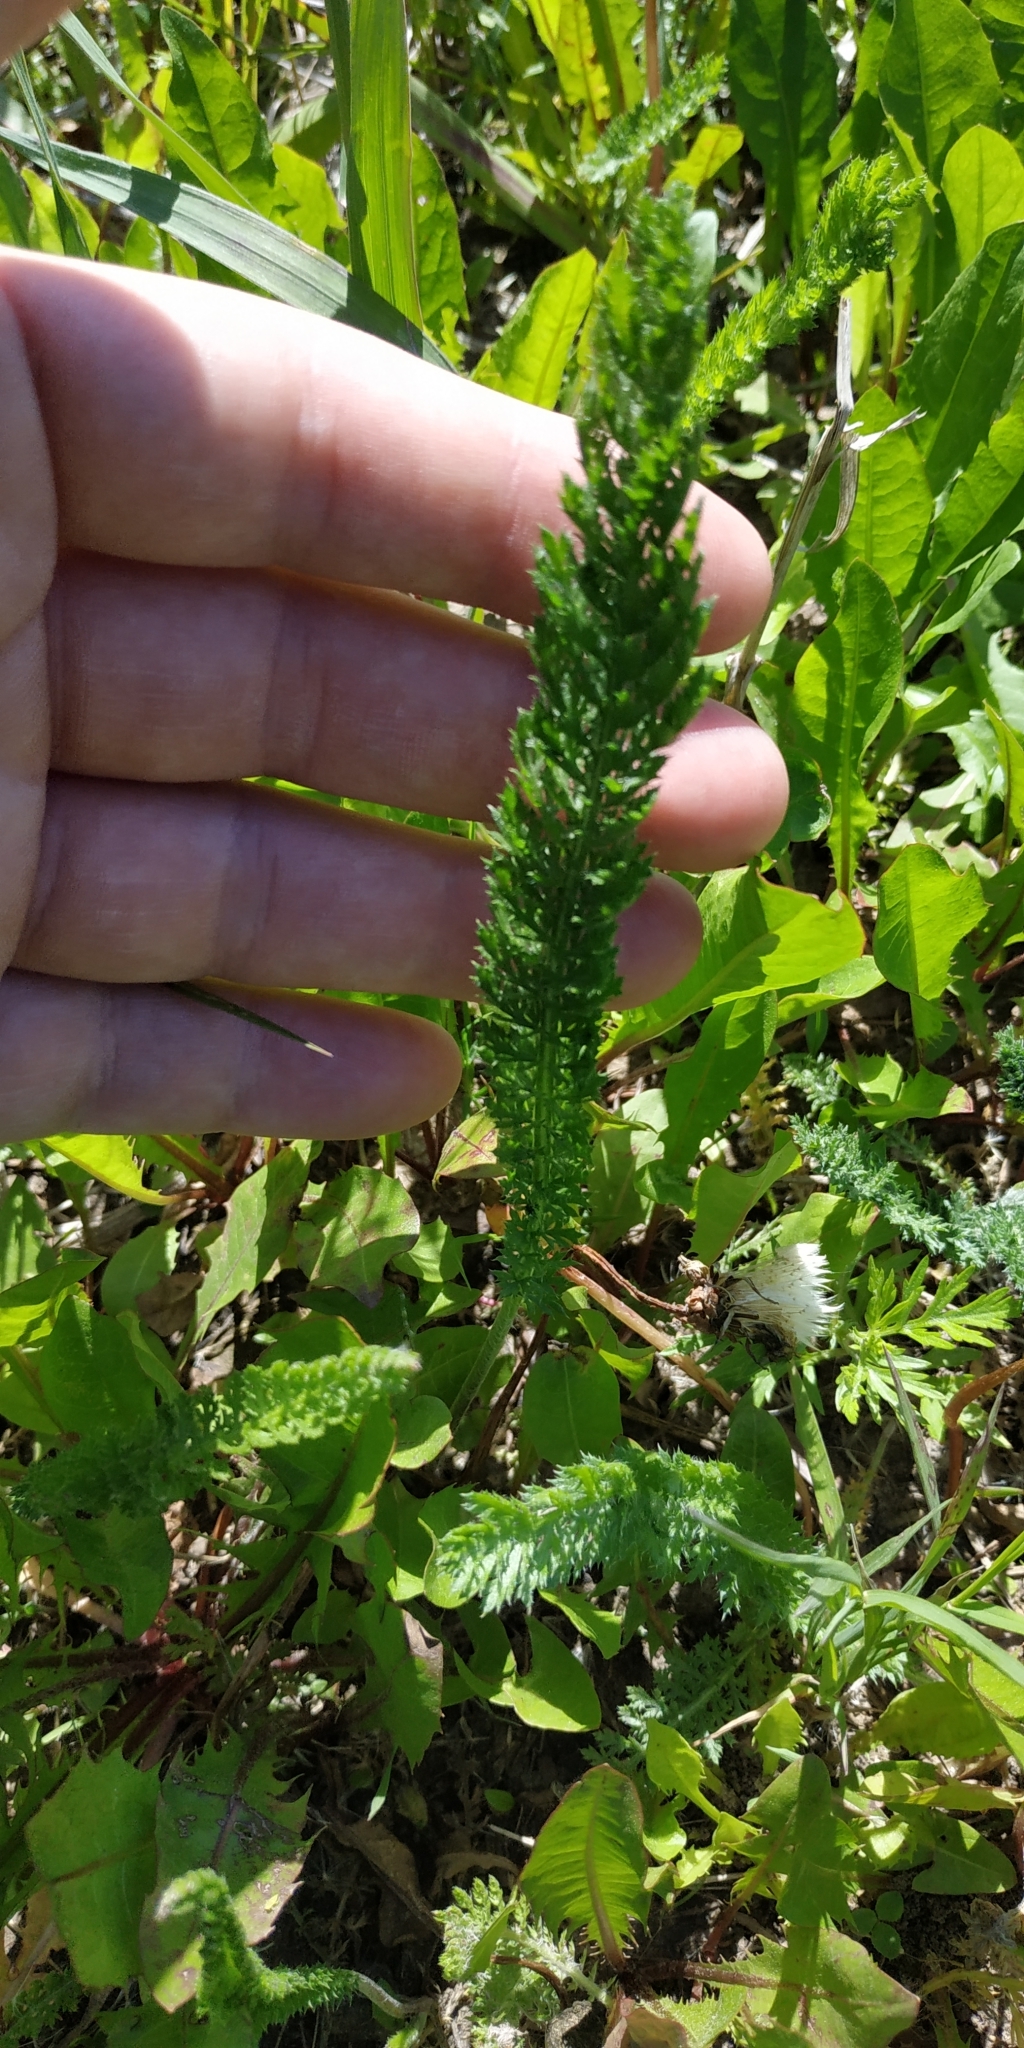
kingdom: Plantae
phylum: Tracheophyta
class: Magnoliopsida
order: Asterales
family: Asteraceae
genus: Achillea
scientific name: Achillea millefolium
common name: Yarrow
